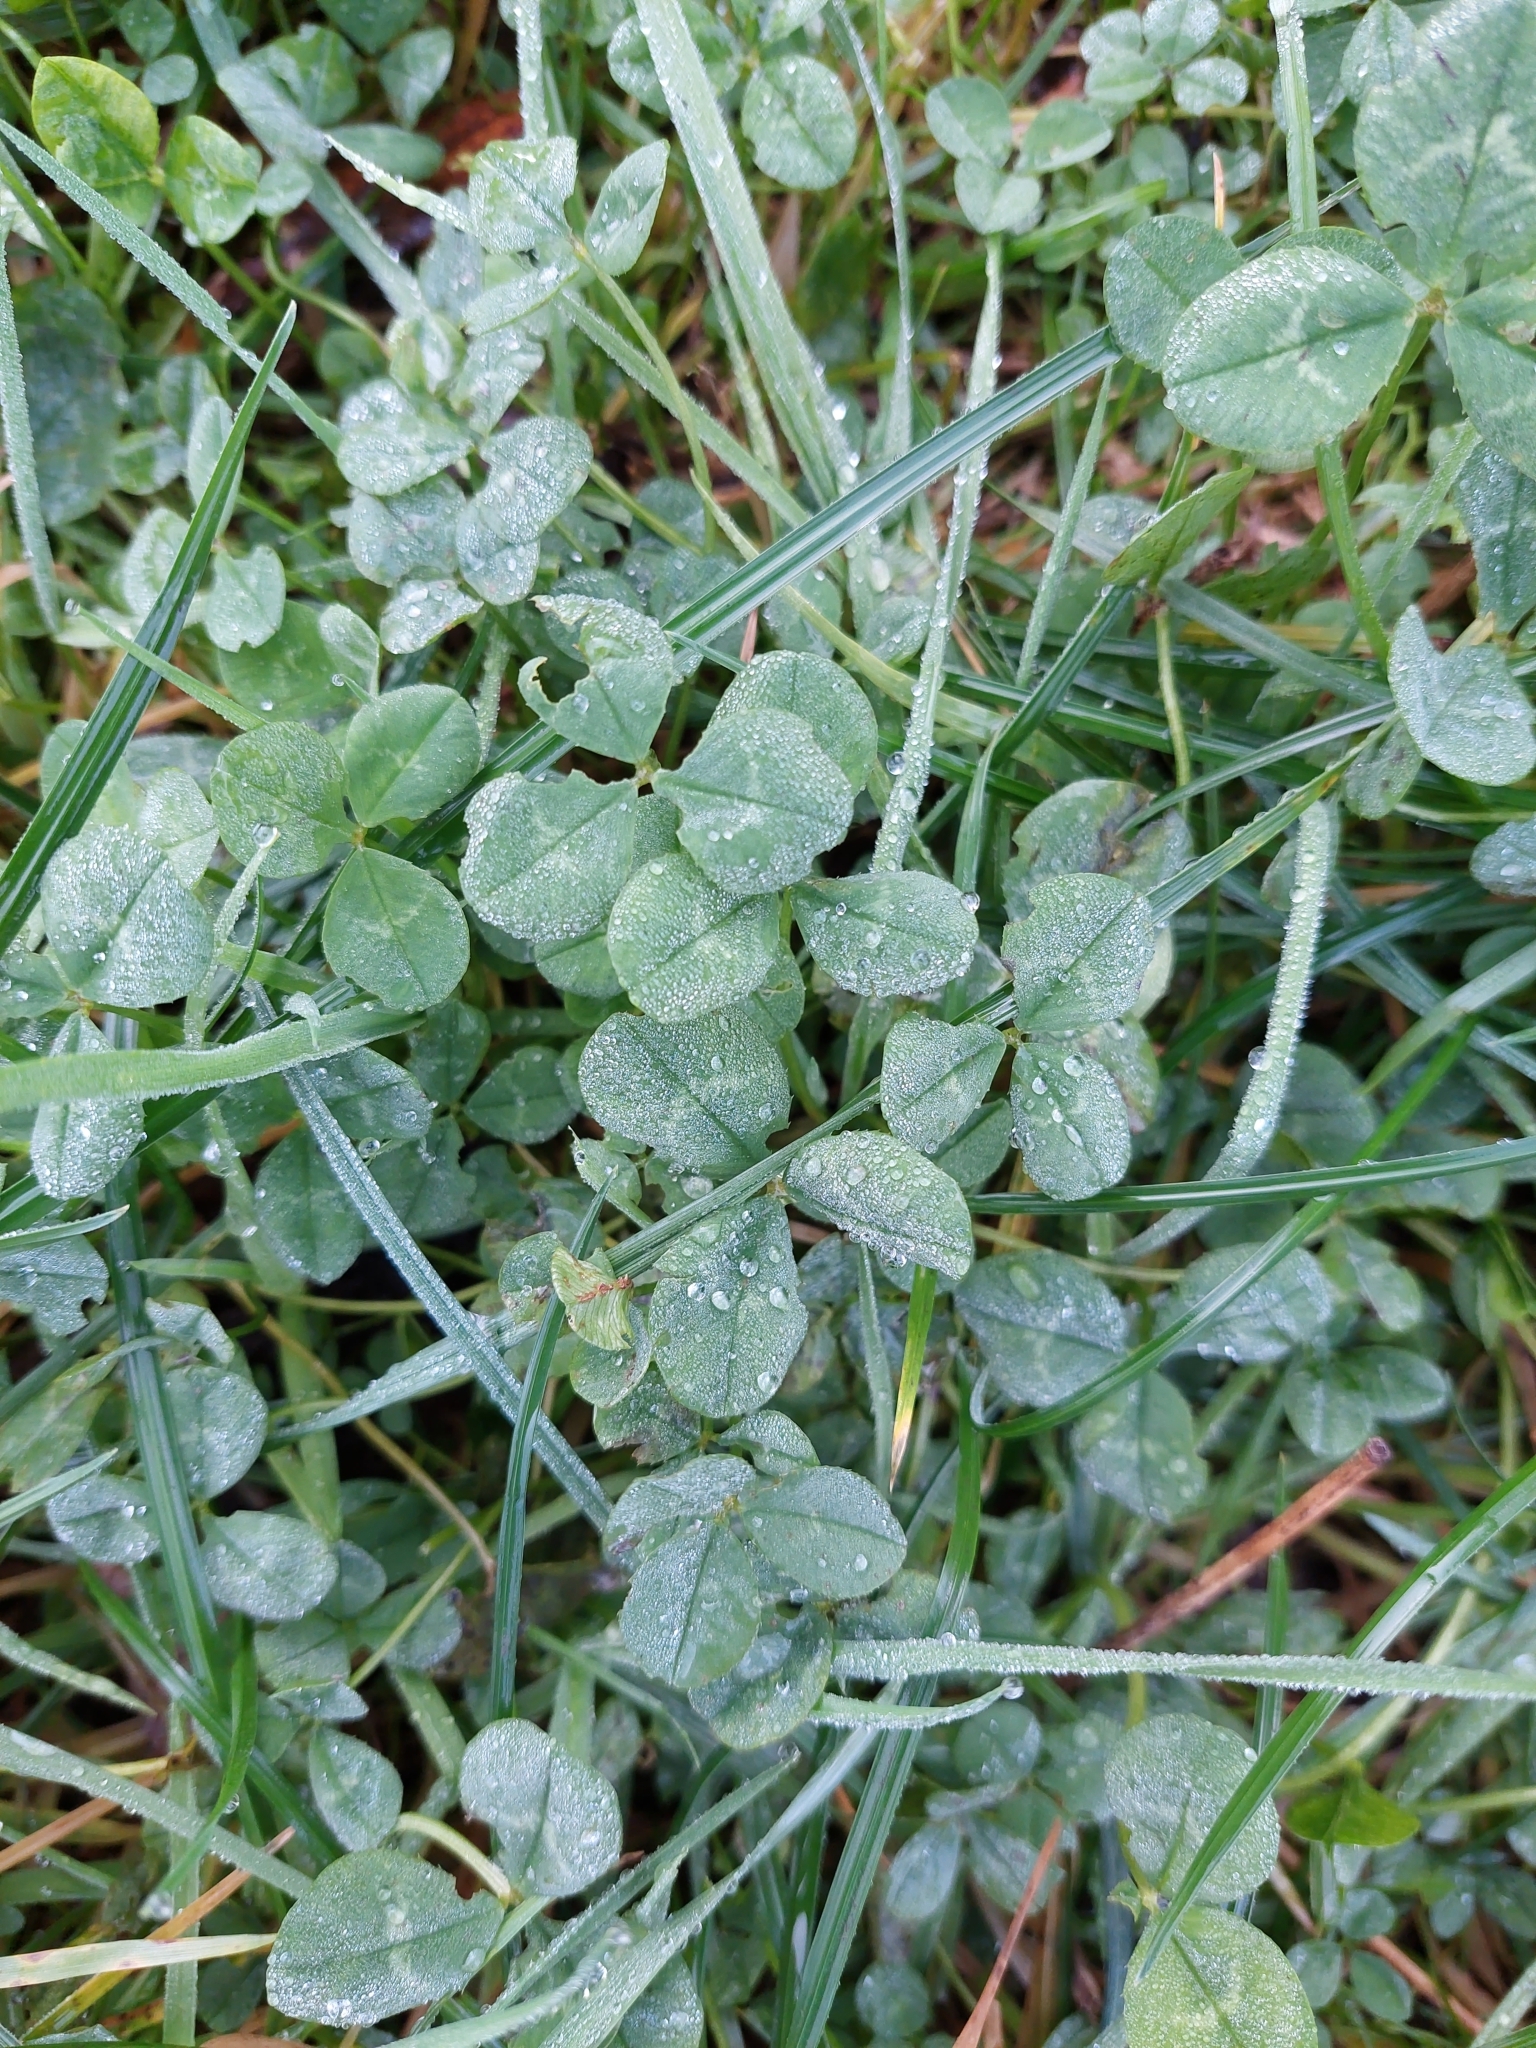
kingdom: Plantae
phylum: Tracheophyta
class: Magnoliopsida
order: Fabales
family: Fabaceae
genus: Trifolium
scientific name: Trifolium repens
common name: White clover
